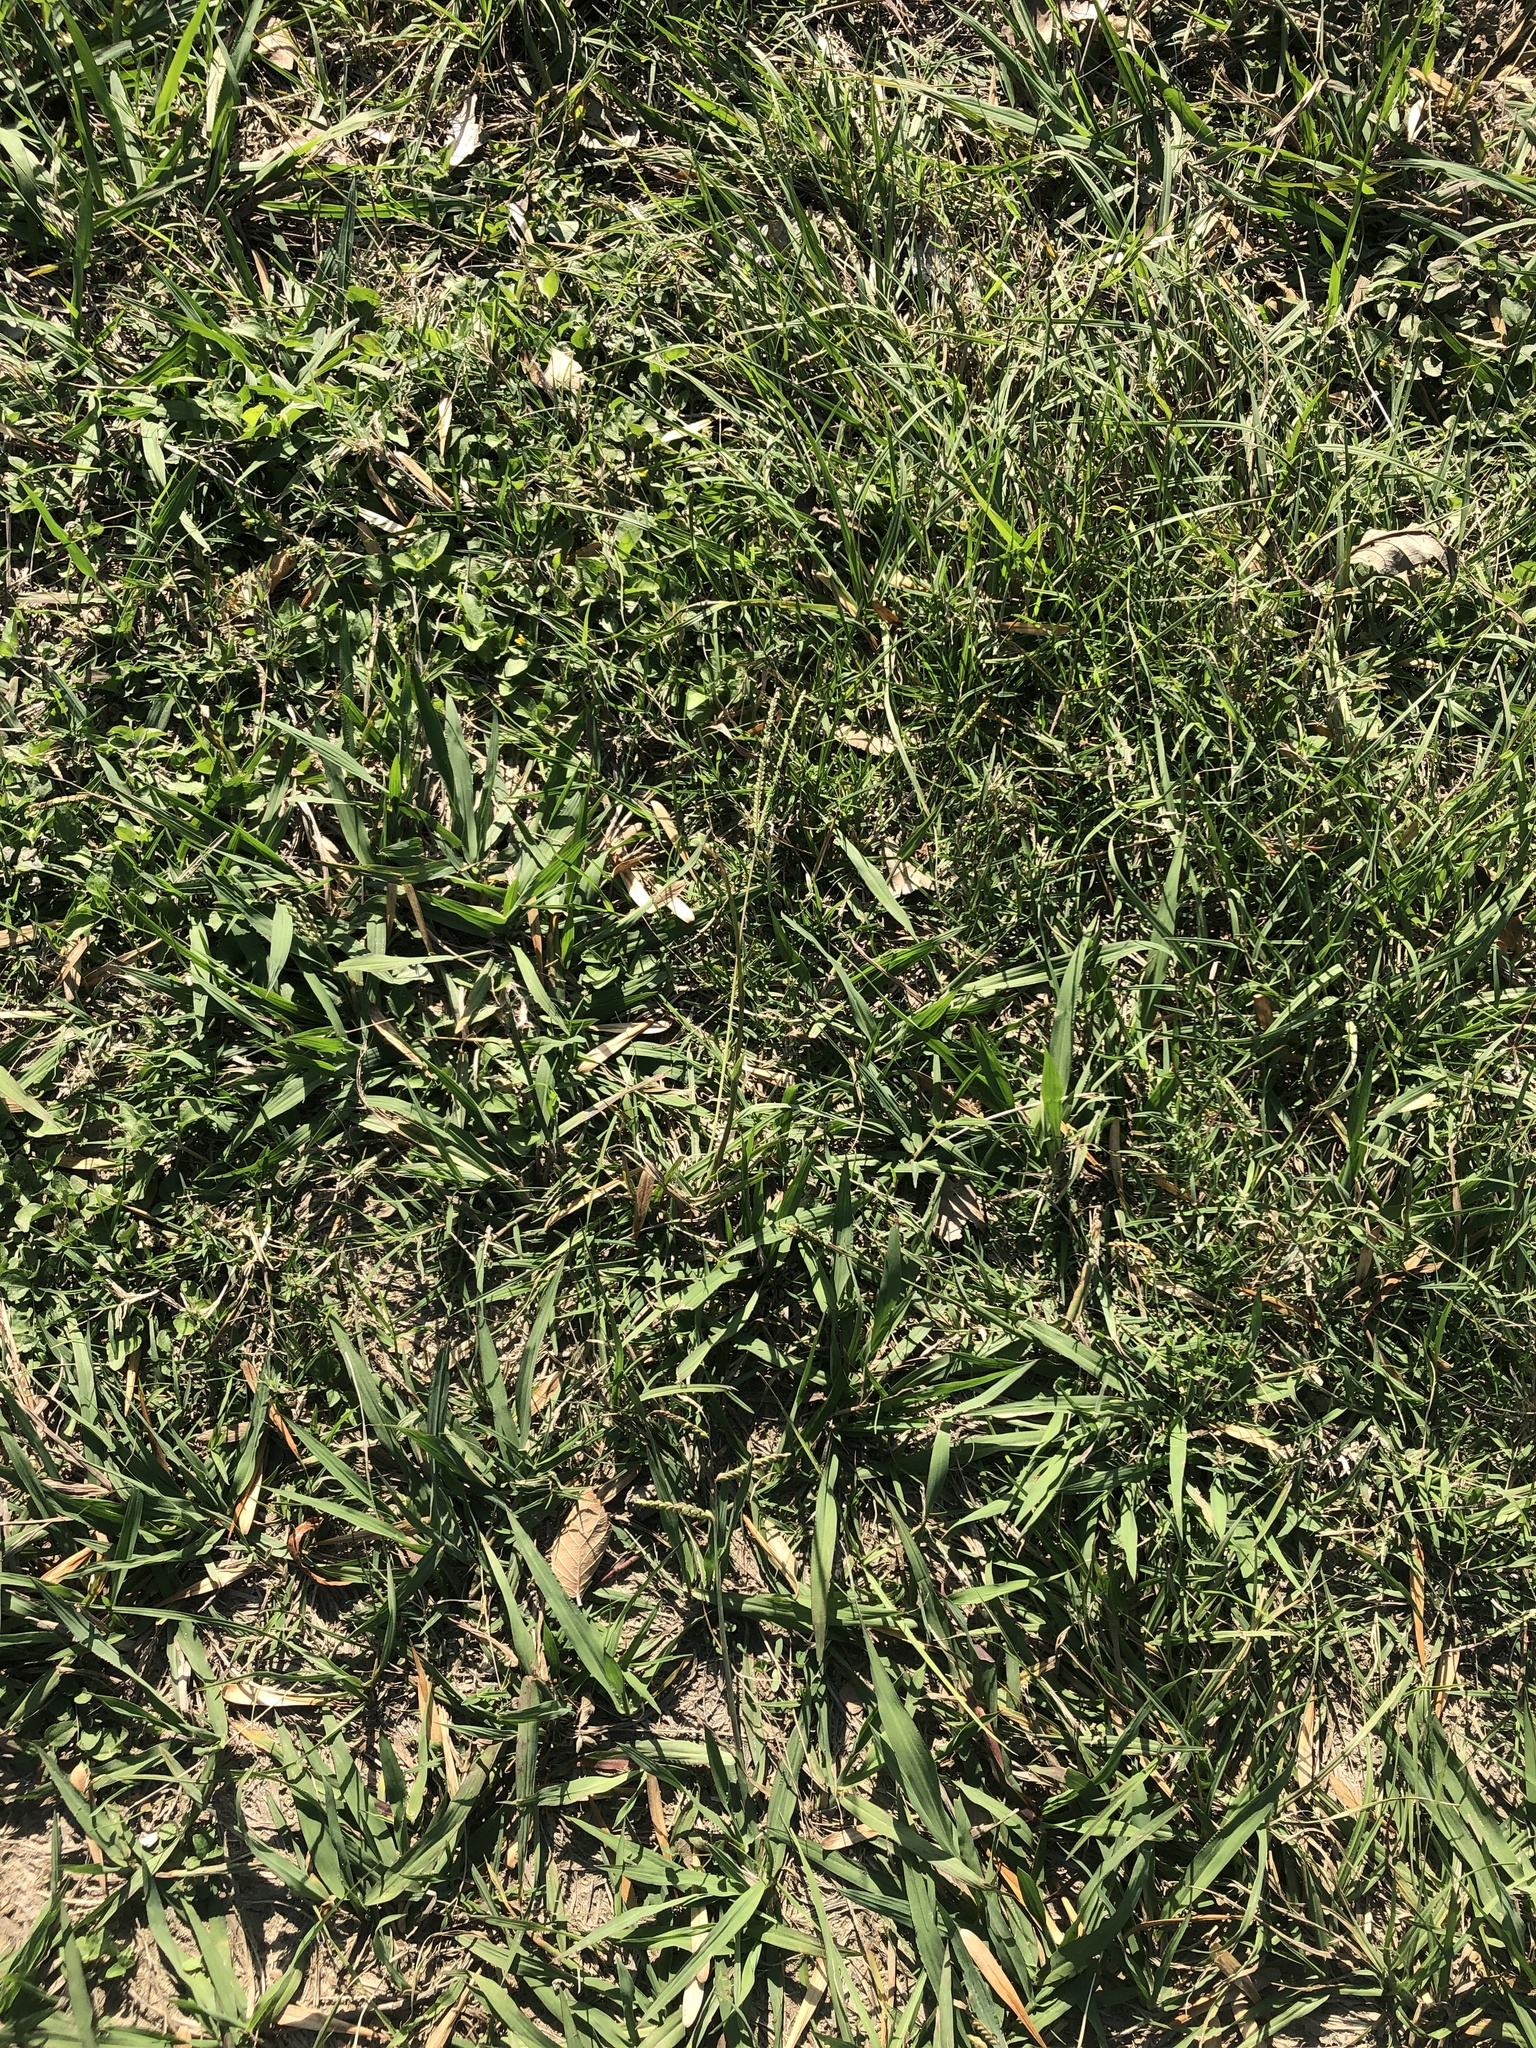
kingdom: Plantae
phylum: Tracheophyta
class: Liliopsida
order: Poales
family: Poaceae
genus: Paspalum
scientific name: Paspalum notatum
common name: Bahiagrass
